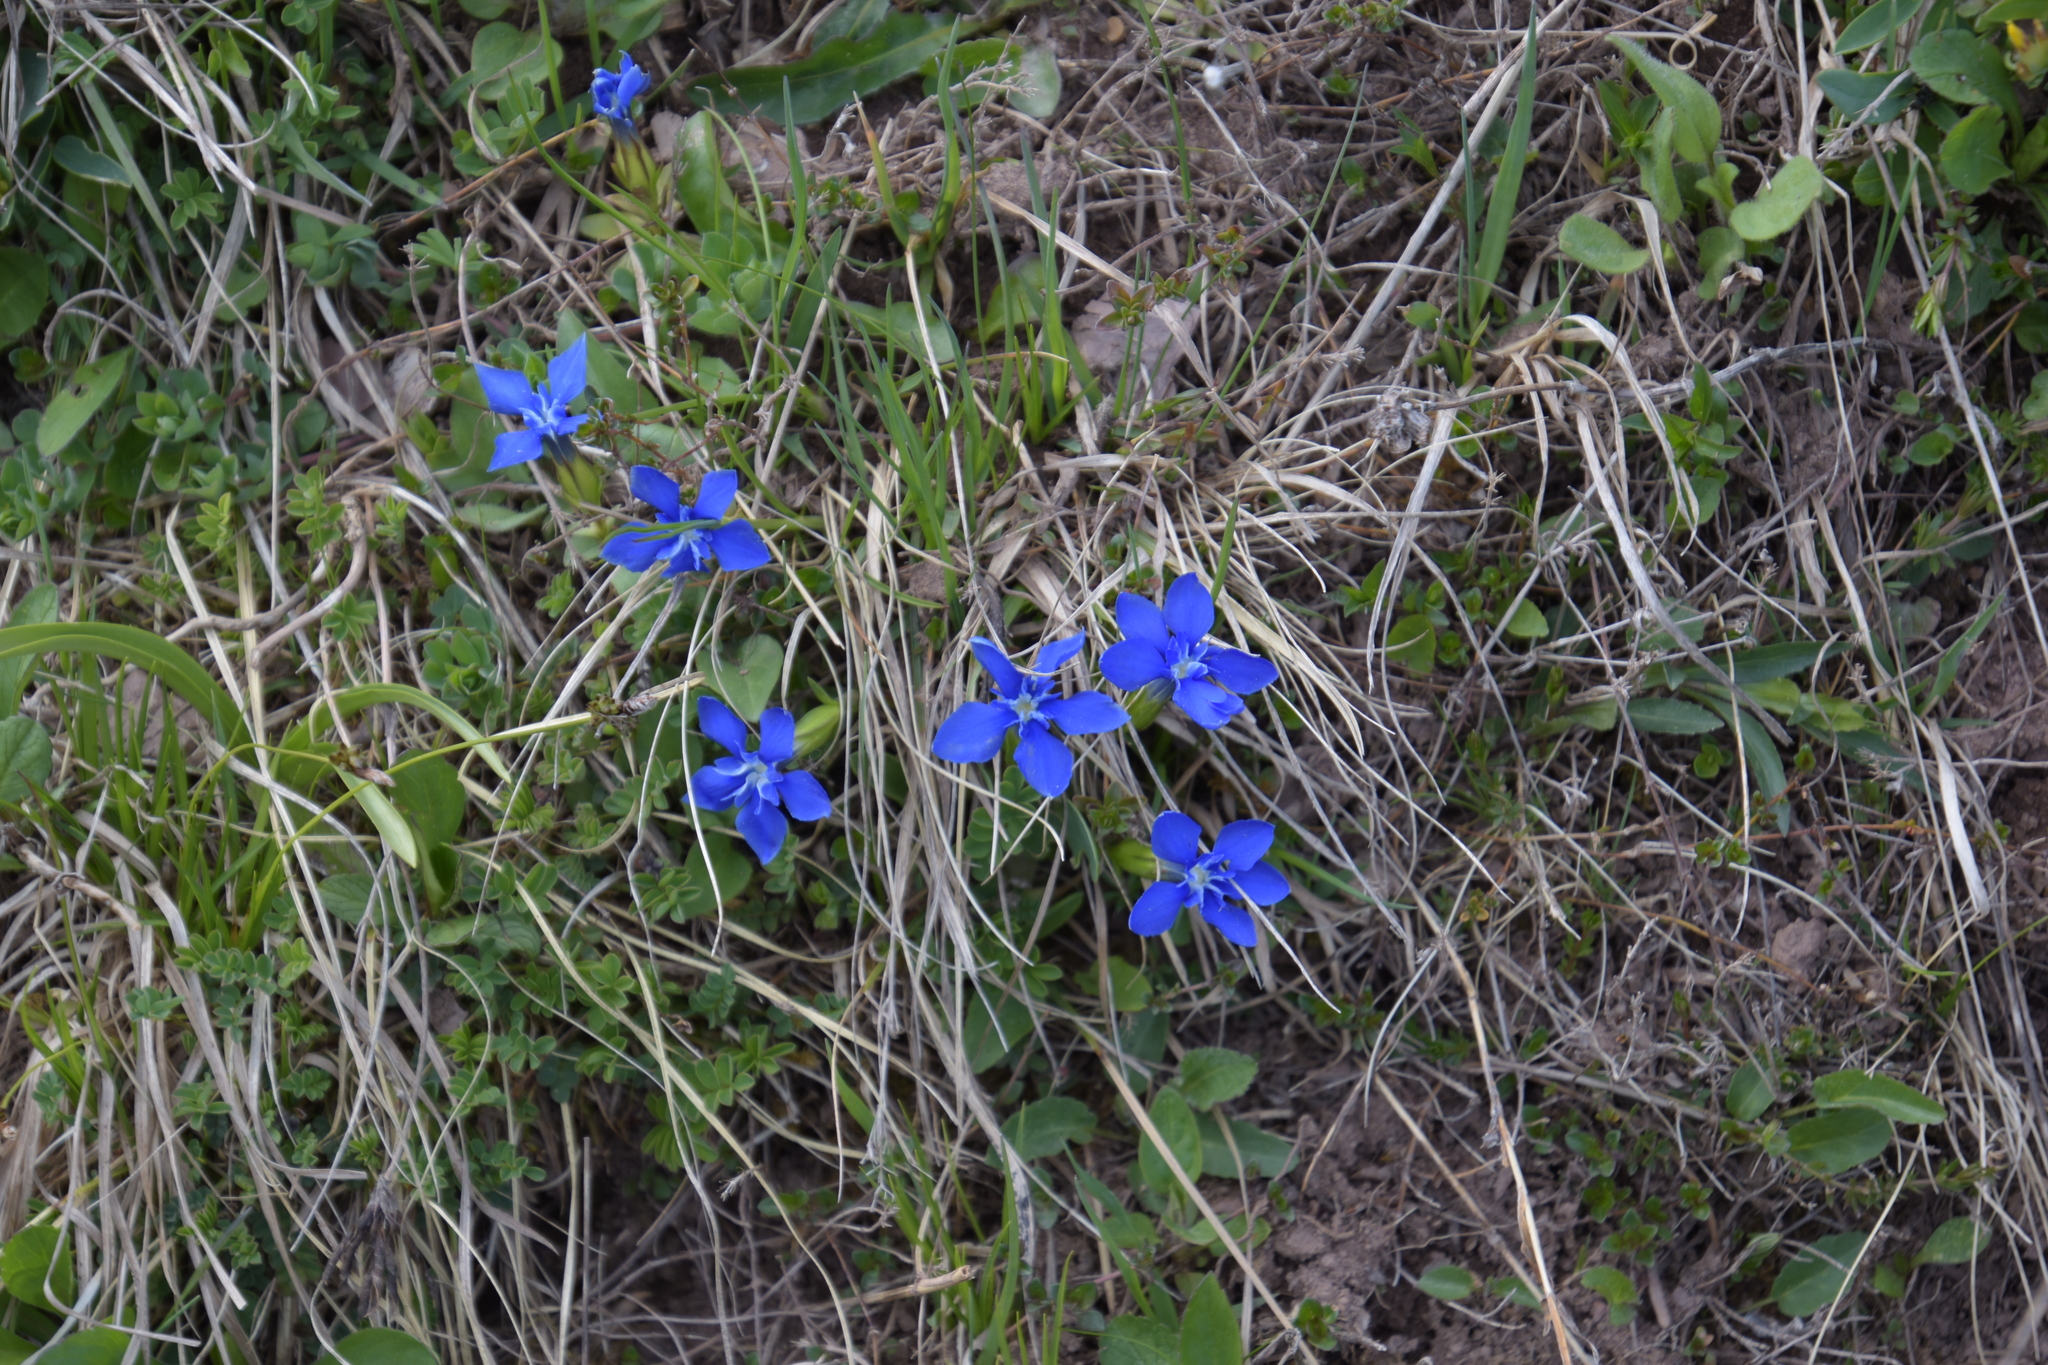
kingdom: Plantae
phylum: Tracheophyta
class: Magnoliopsida
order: Gentianales
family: Gentianaceae
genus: Gentiana
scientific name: Gentiana verna
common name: Spring gentian
